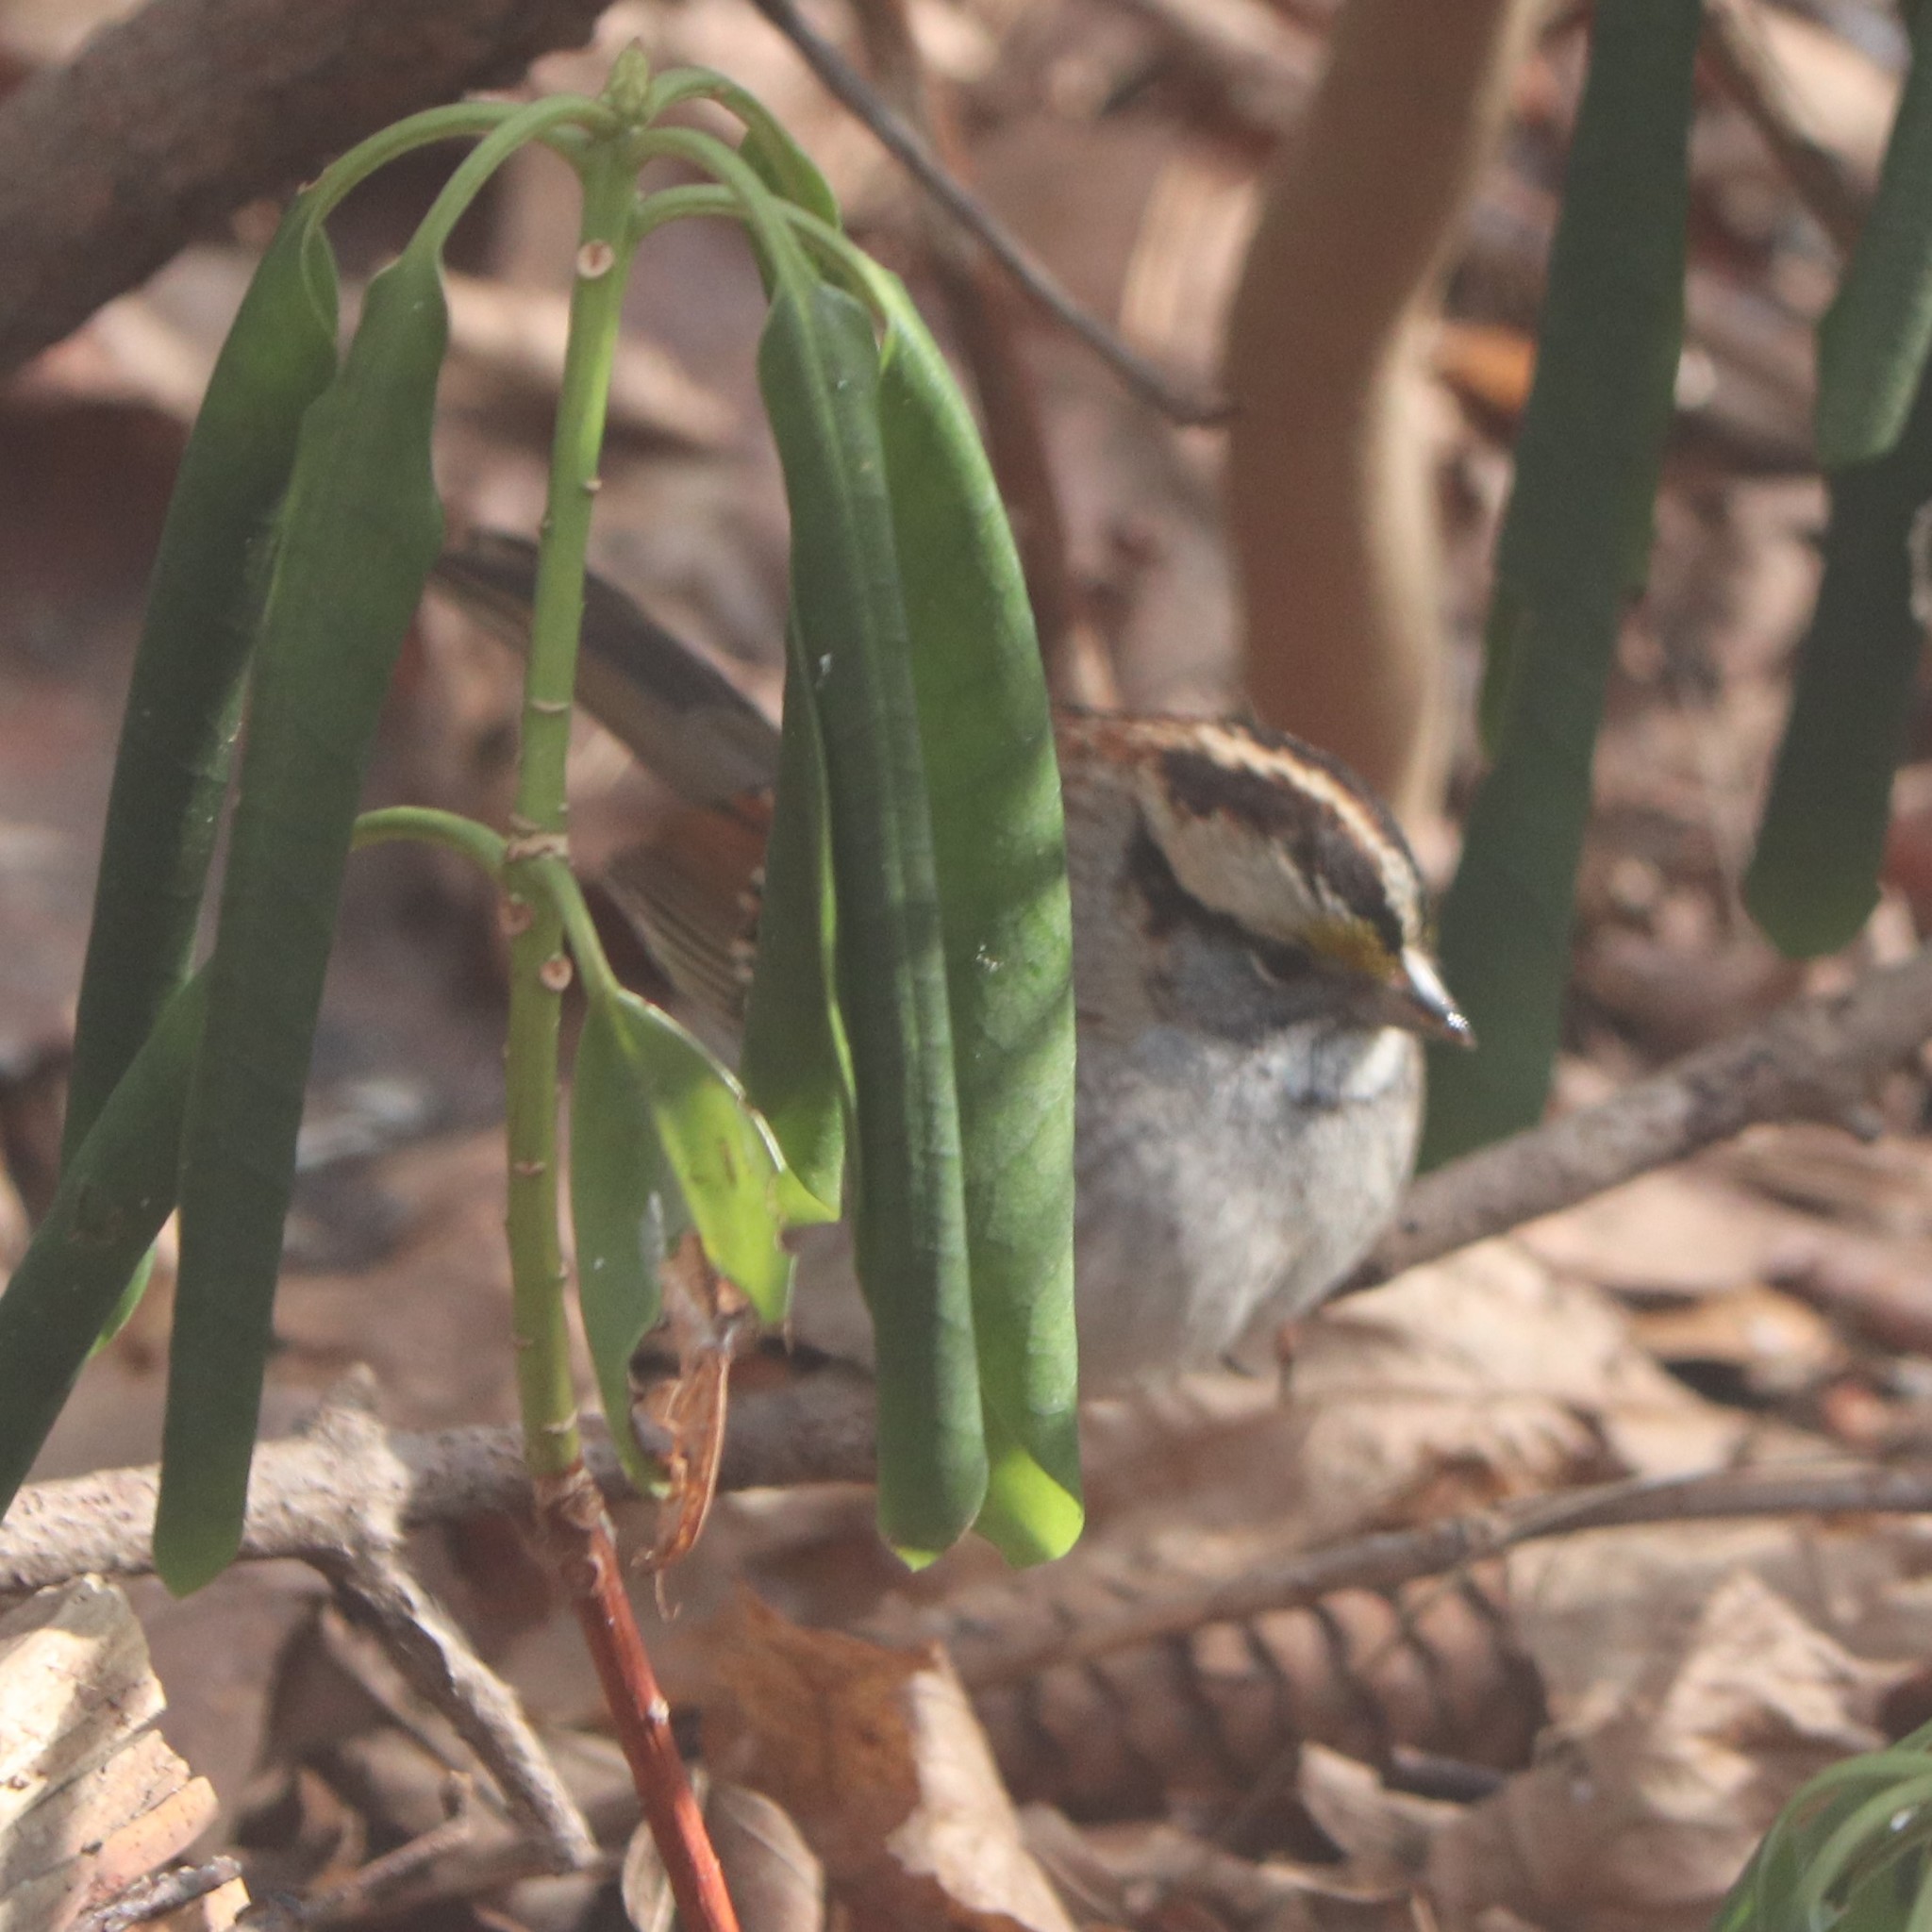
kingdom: Animalia
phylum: Chordata
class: Aves
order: Passeriformes
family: Passerellidae
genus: Zonotrichia
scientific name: Zonotrichia albicollis
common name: White-throated sparrow
